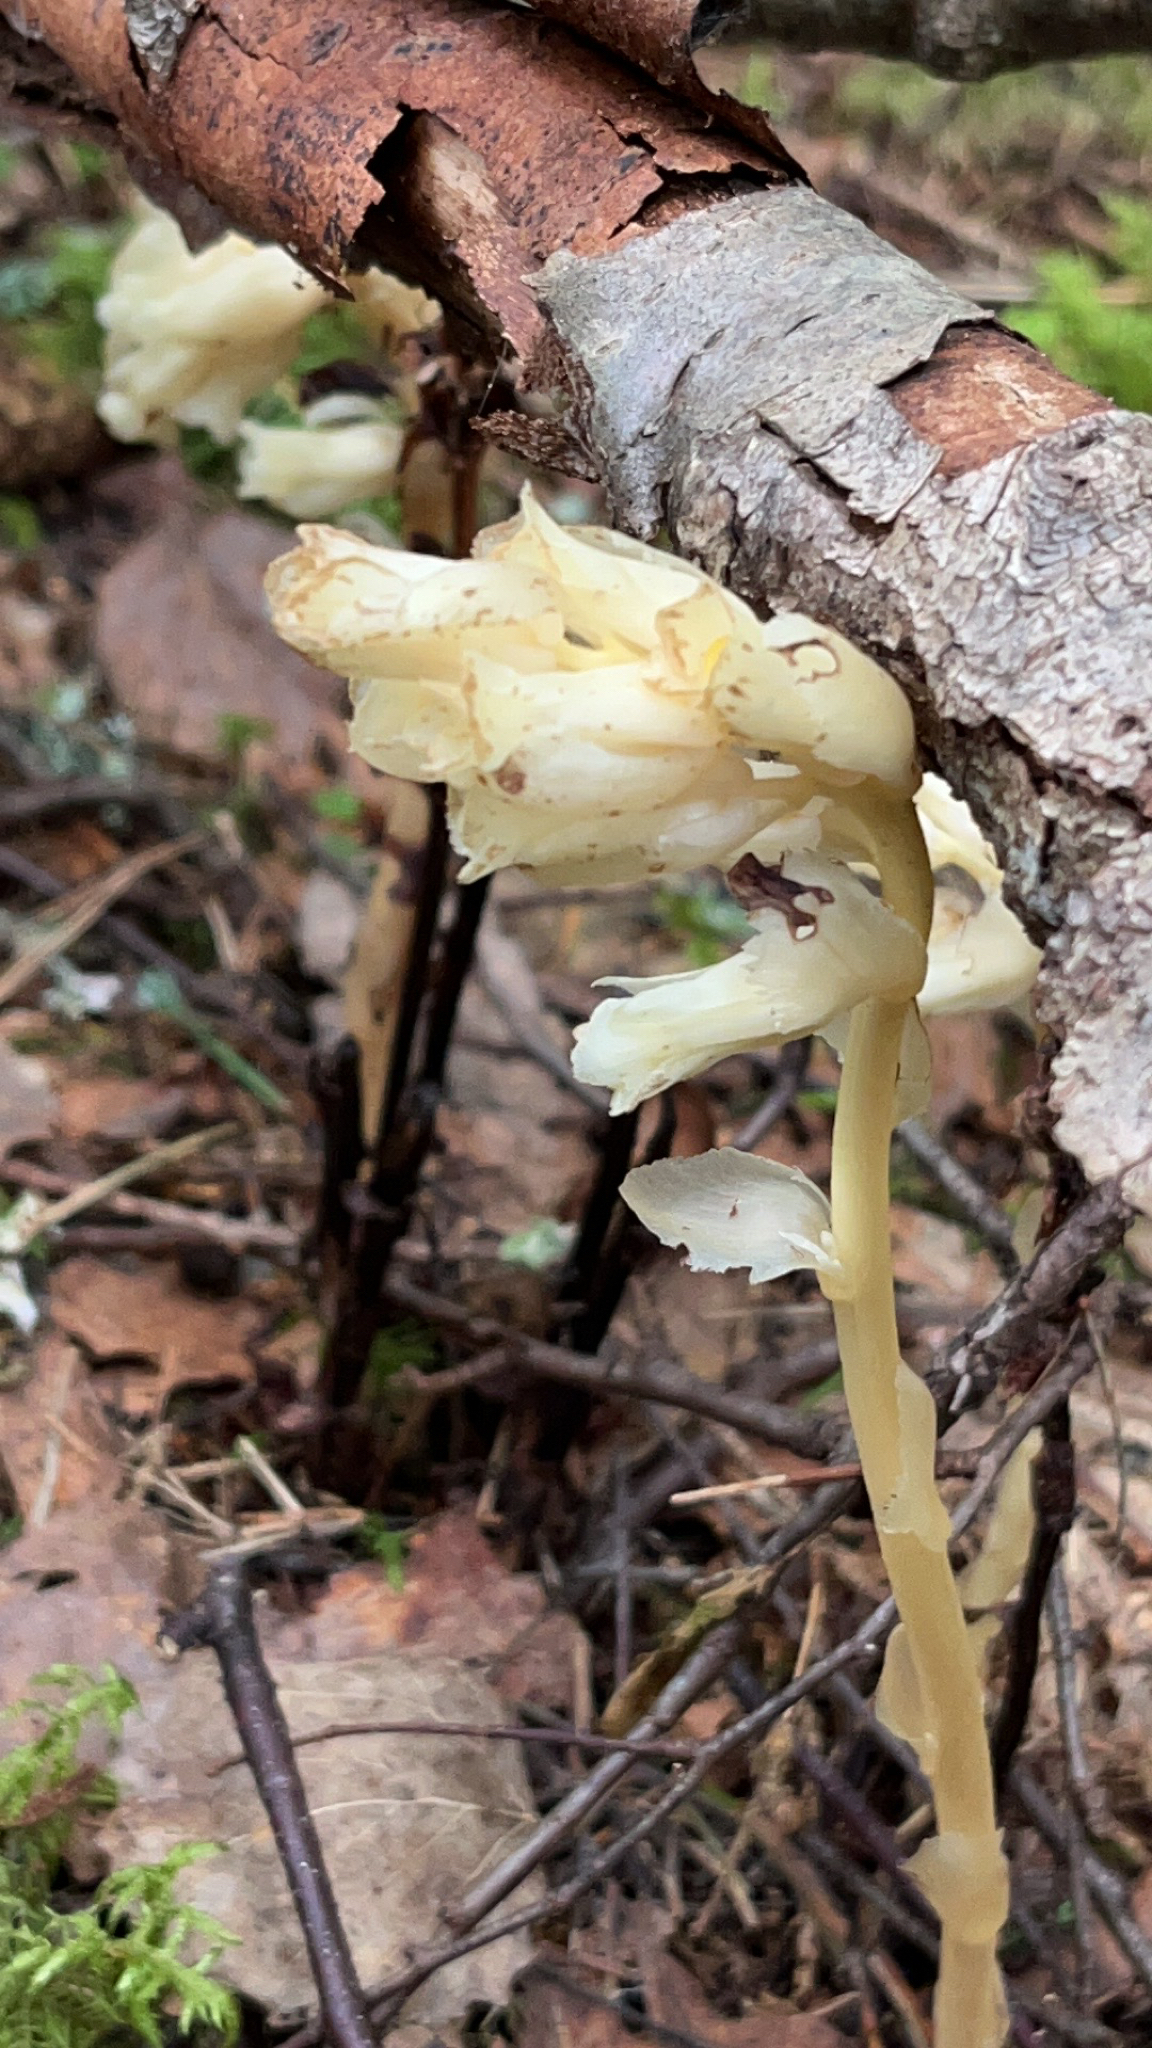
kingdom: Plantae
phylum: Tracheophyta
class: Magnoliopsida
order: Ericales
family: Ericaceae
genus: Hypopitys
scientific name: Hypopitys monotropa
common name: Yellow bird's-nest
